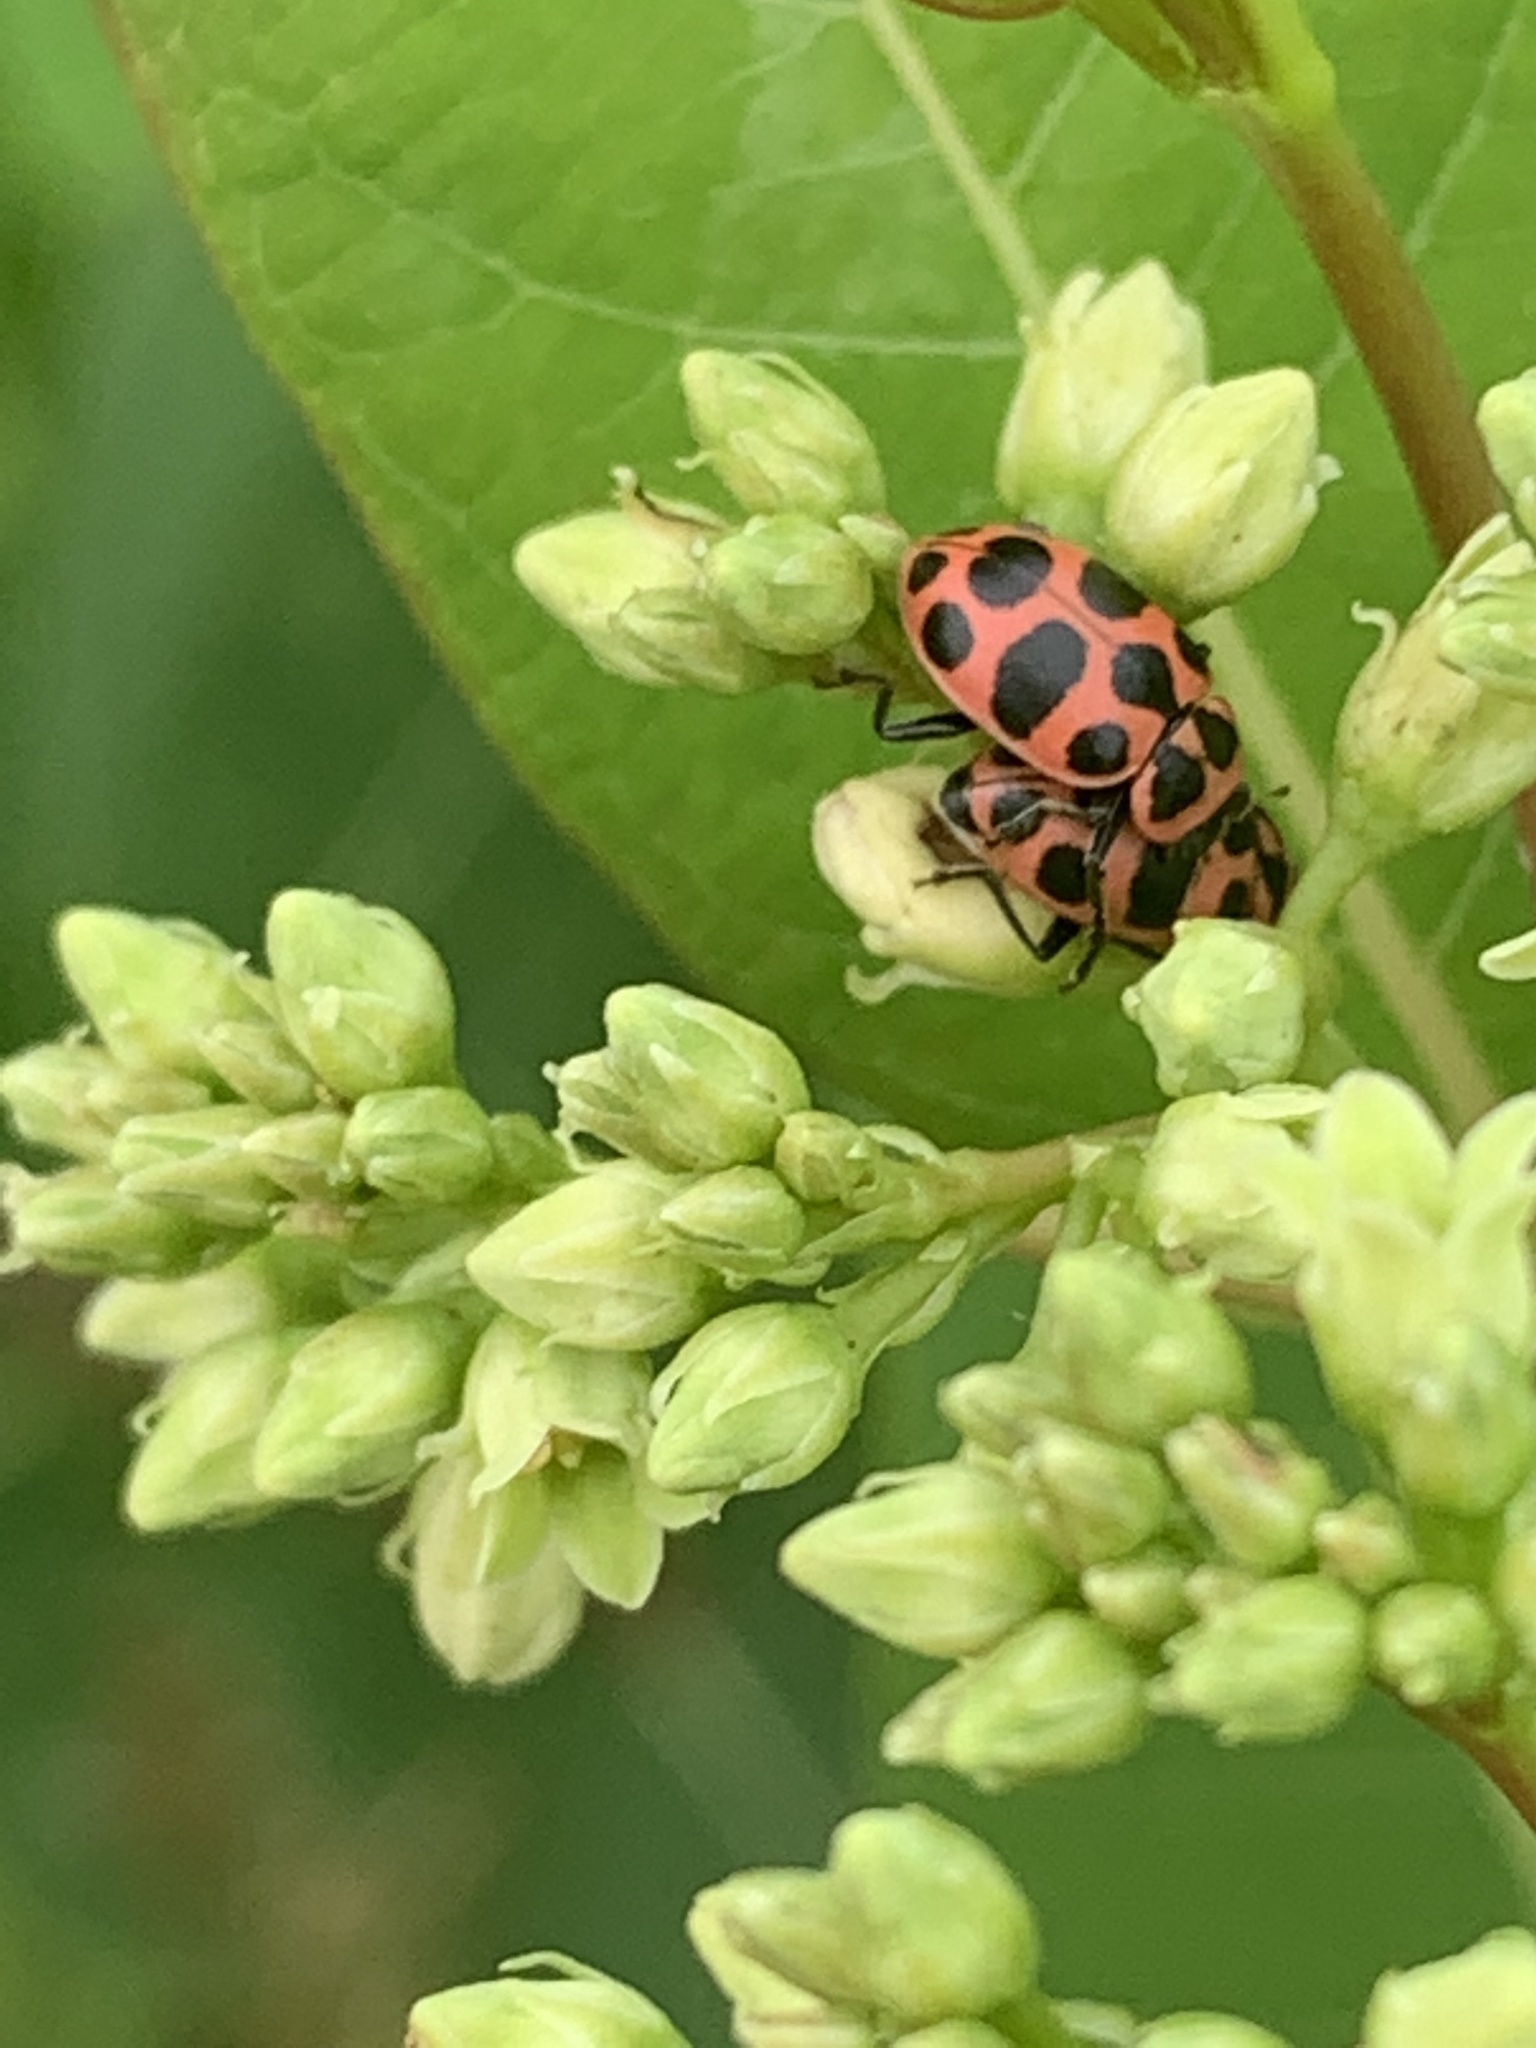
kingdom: Animalia
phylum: Arthropoda
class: Insecta
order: Coleoptera
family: Coccinellidae
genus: Coleomegilla
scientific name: Coleomegilla maculata
